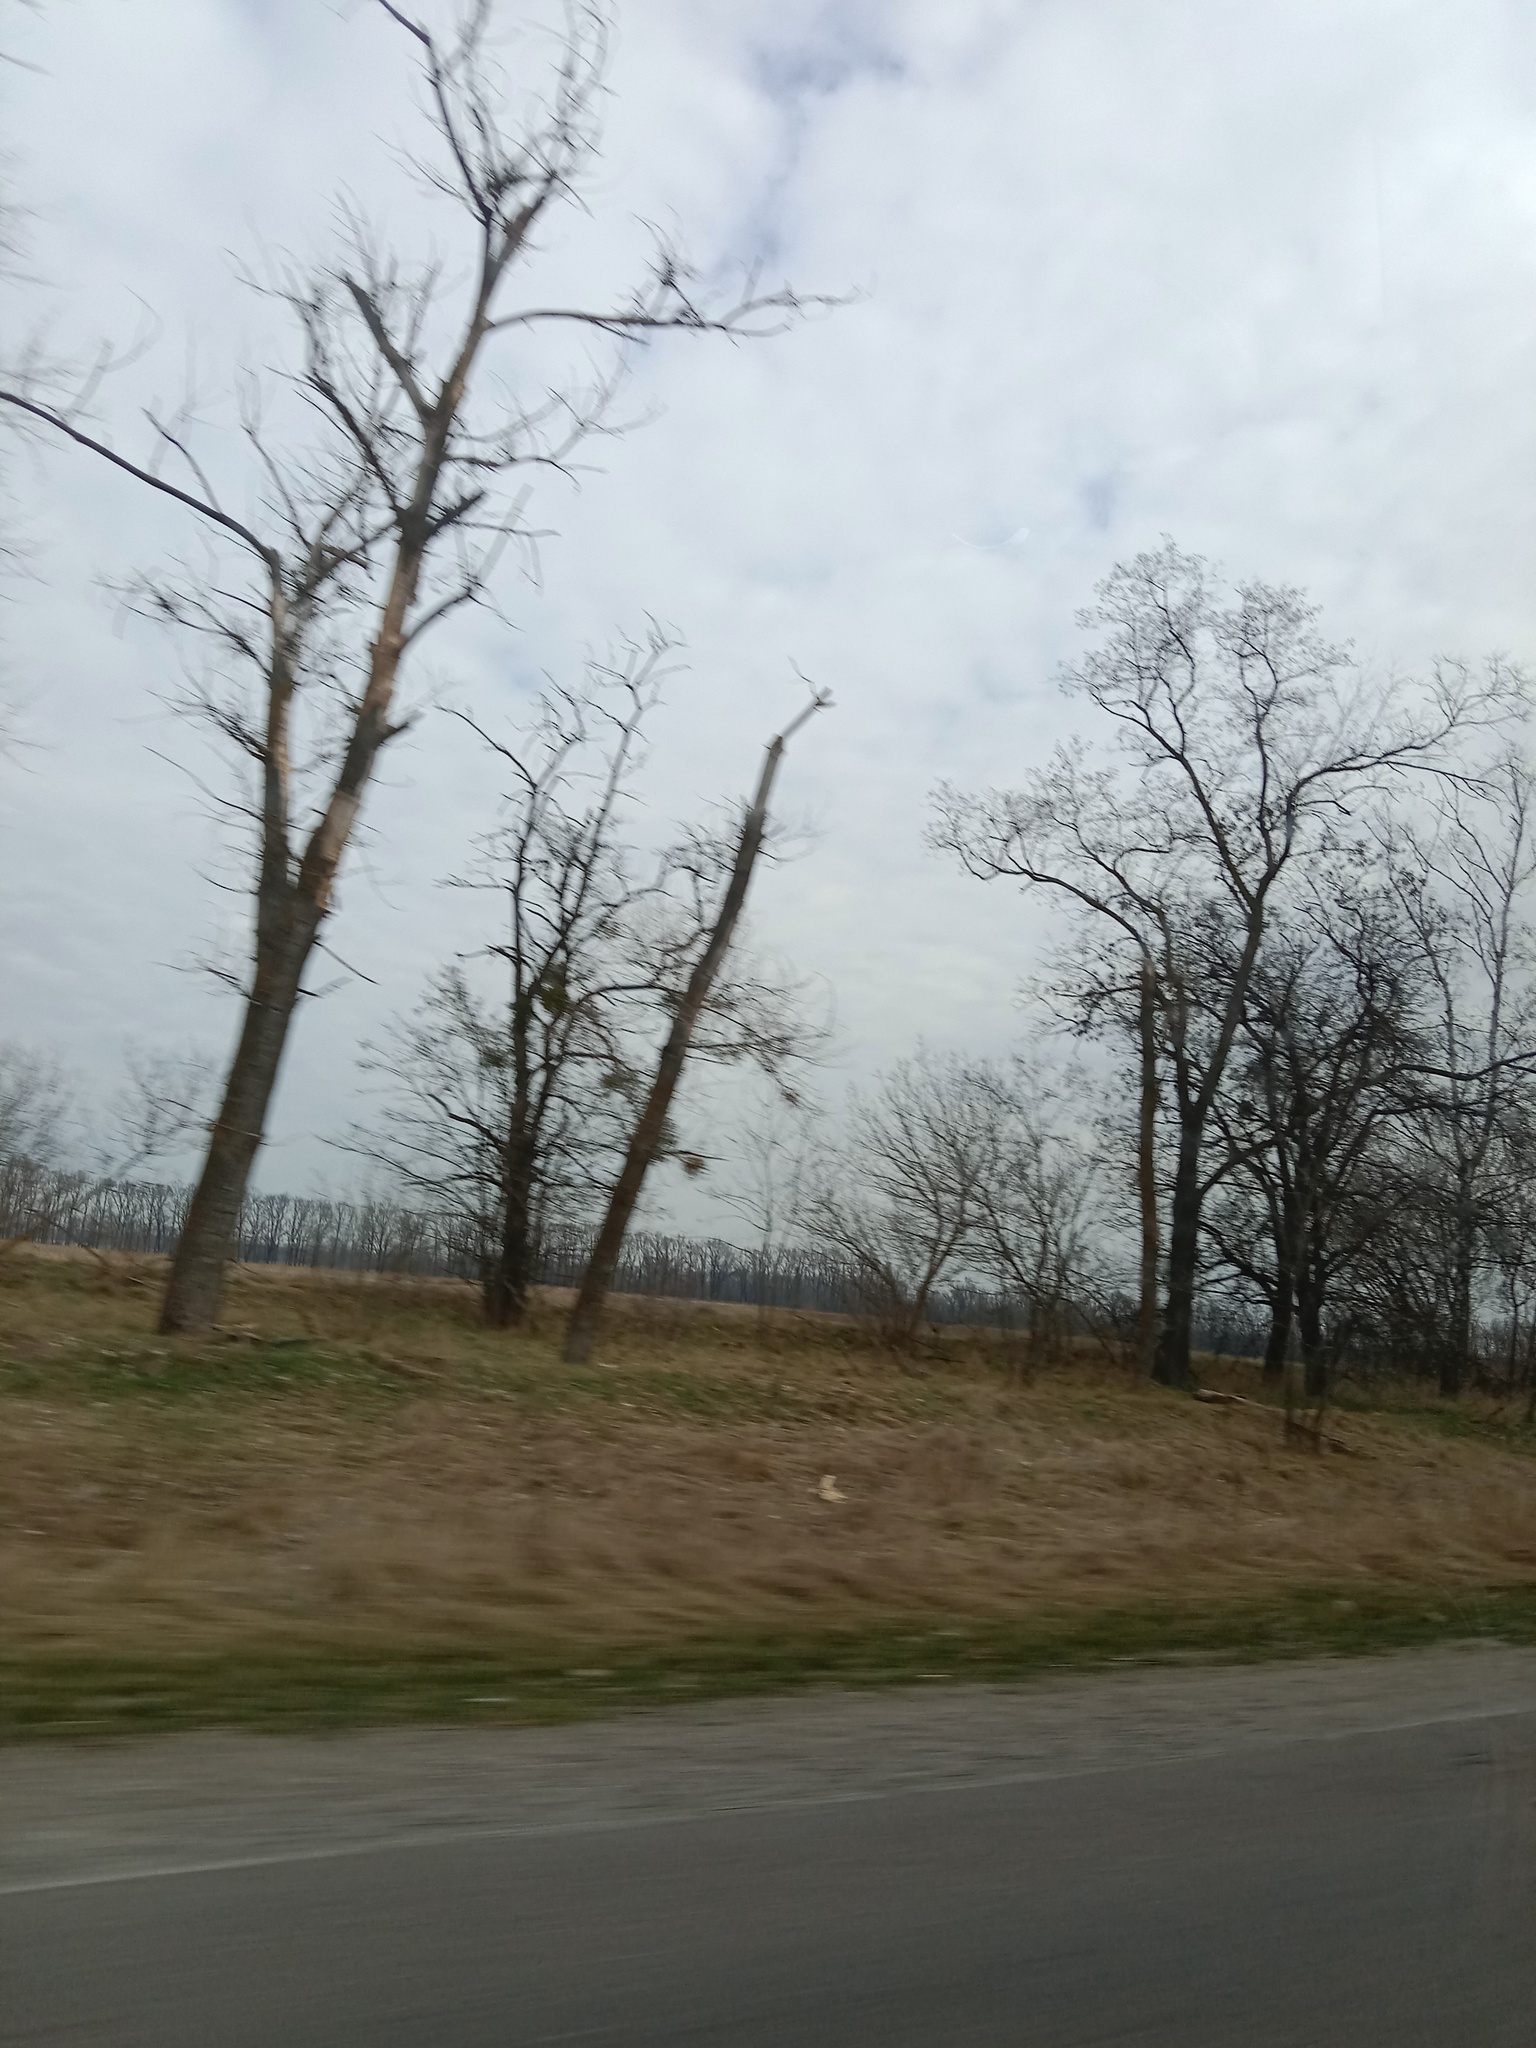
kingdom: Plantae
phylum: Tracheophyta
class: Magnoliopsida
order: Santalales
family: Viscaceae
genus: Viscum
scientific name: Viscum album
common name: Mistletoe
